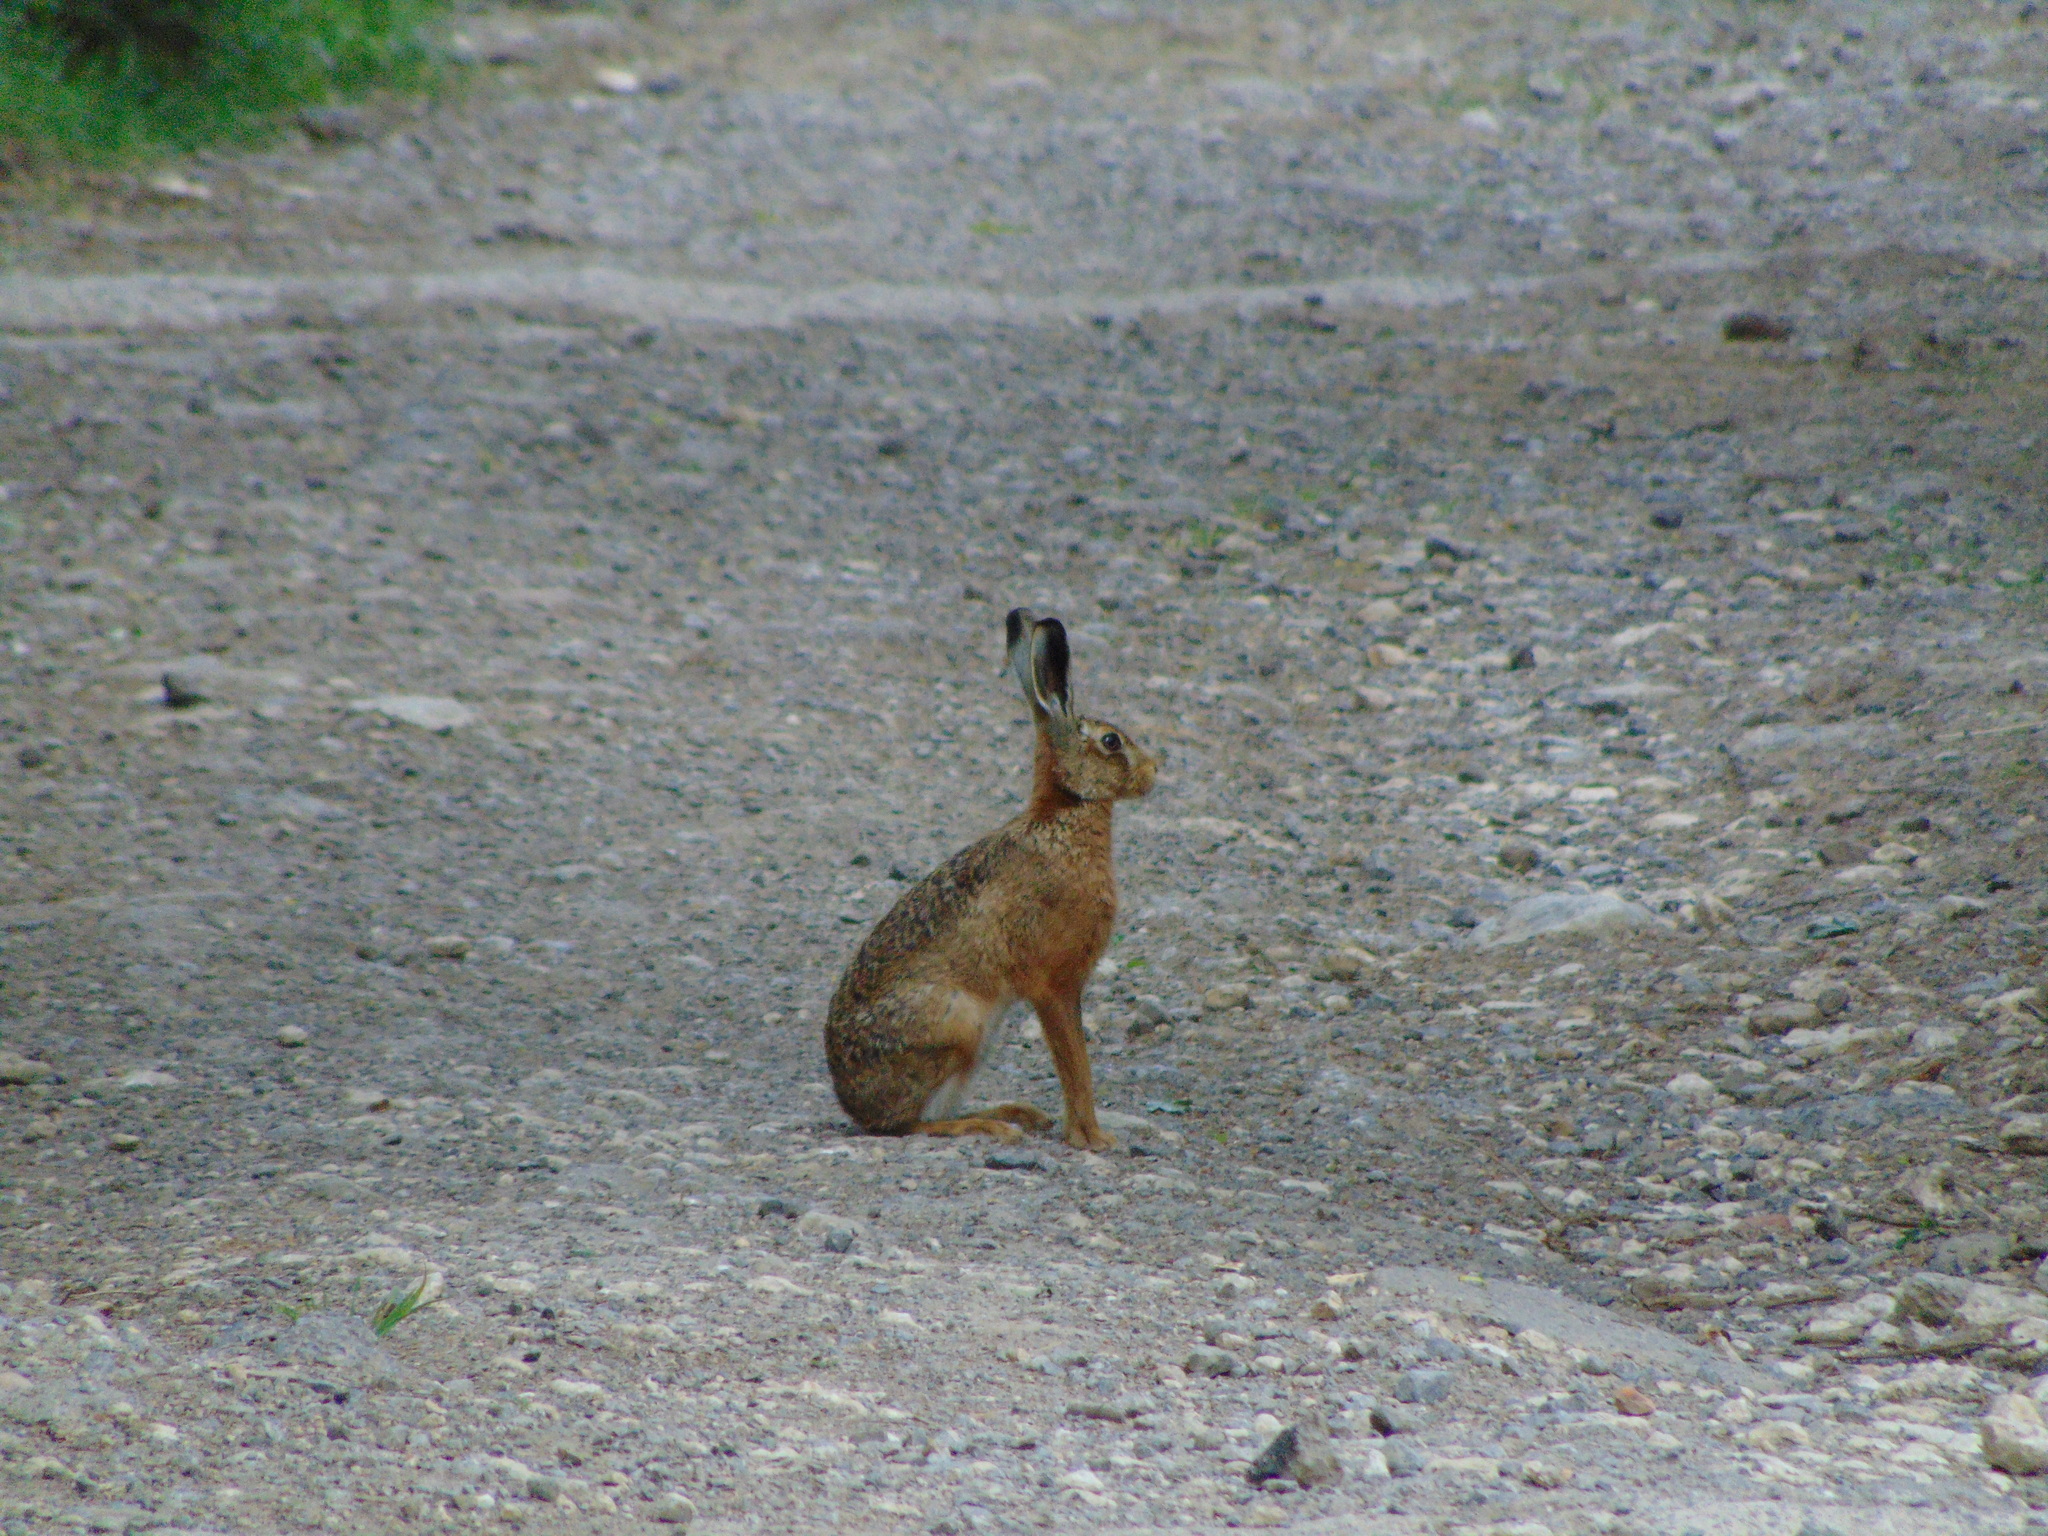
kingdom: Animalia
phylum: Chordata
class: Mammalia
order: Lagomorpha
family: Leporidae
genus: Lepus
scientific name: Lepus europaeus
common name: European hare
